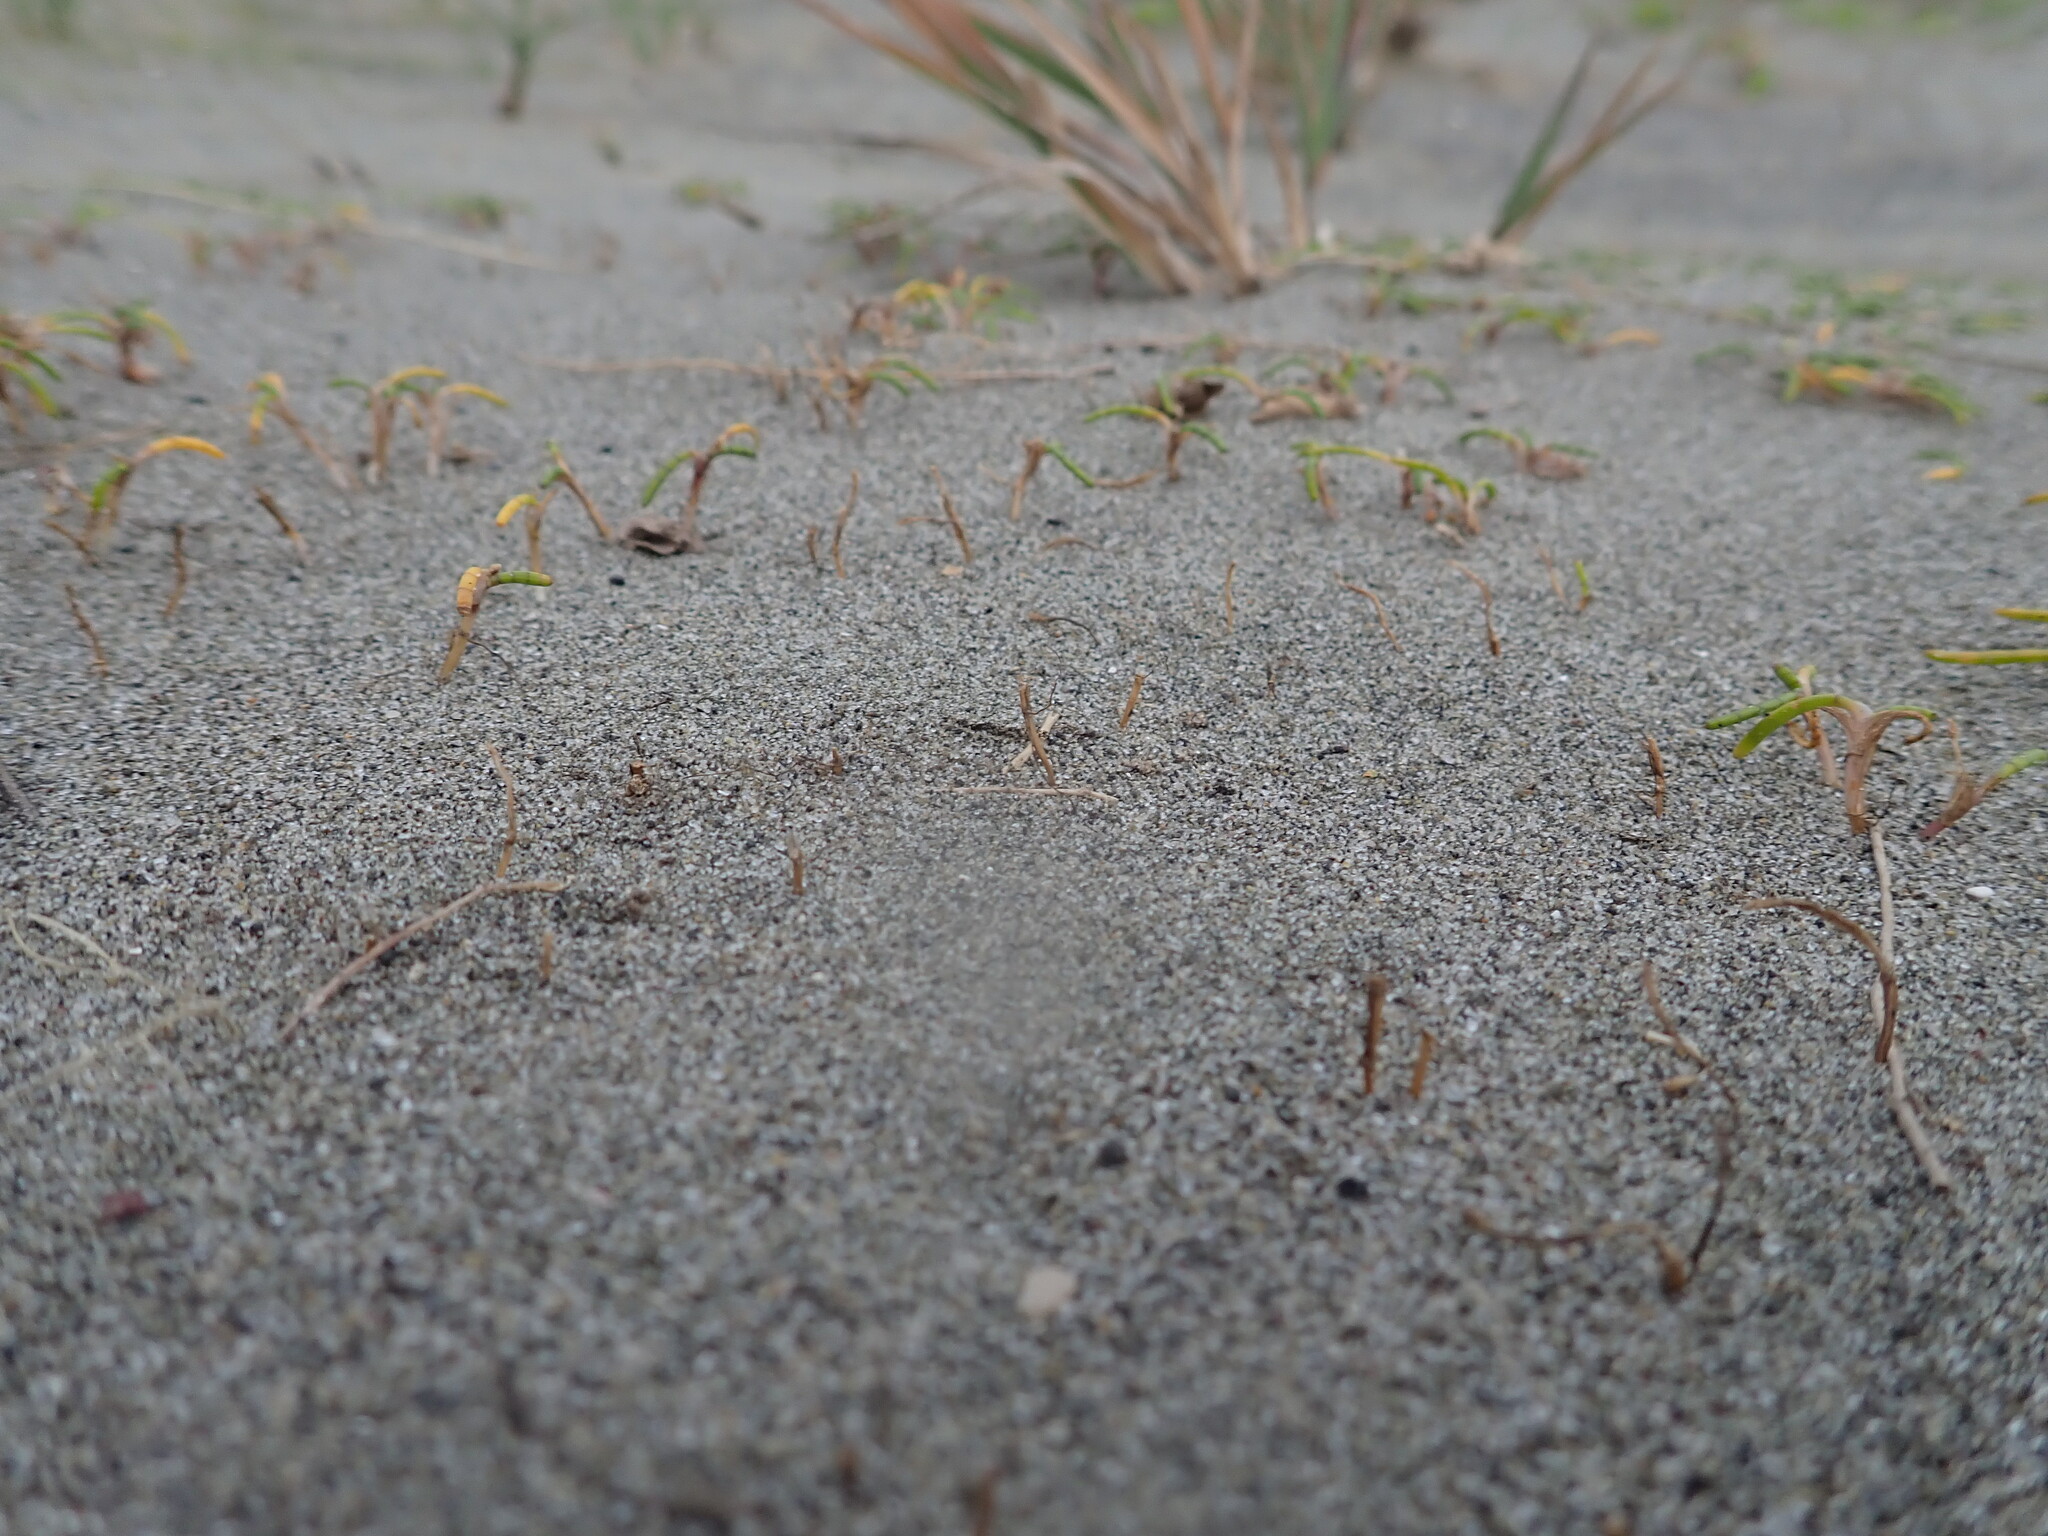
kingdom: Plantae
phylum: Tracheophyta
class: Magnoliopsida
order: Apiales
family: Apiaceae
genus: Lilaeopsis
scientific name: Lilaeopsis novae-zelandiae
